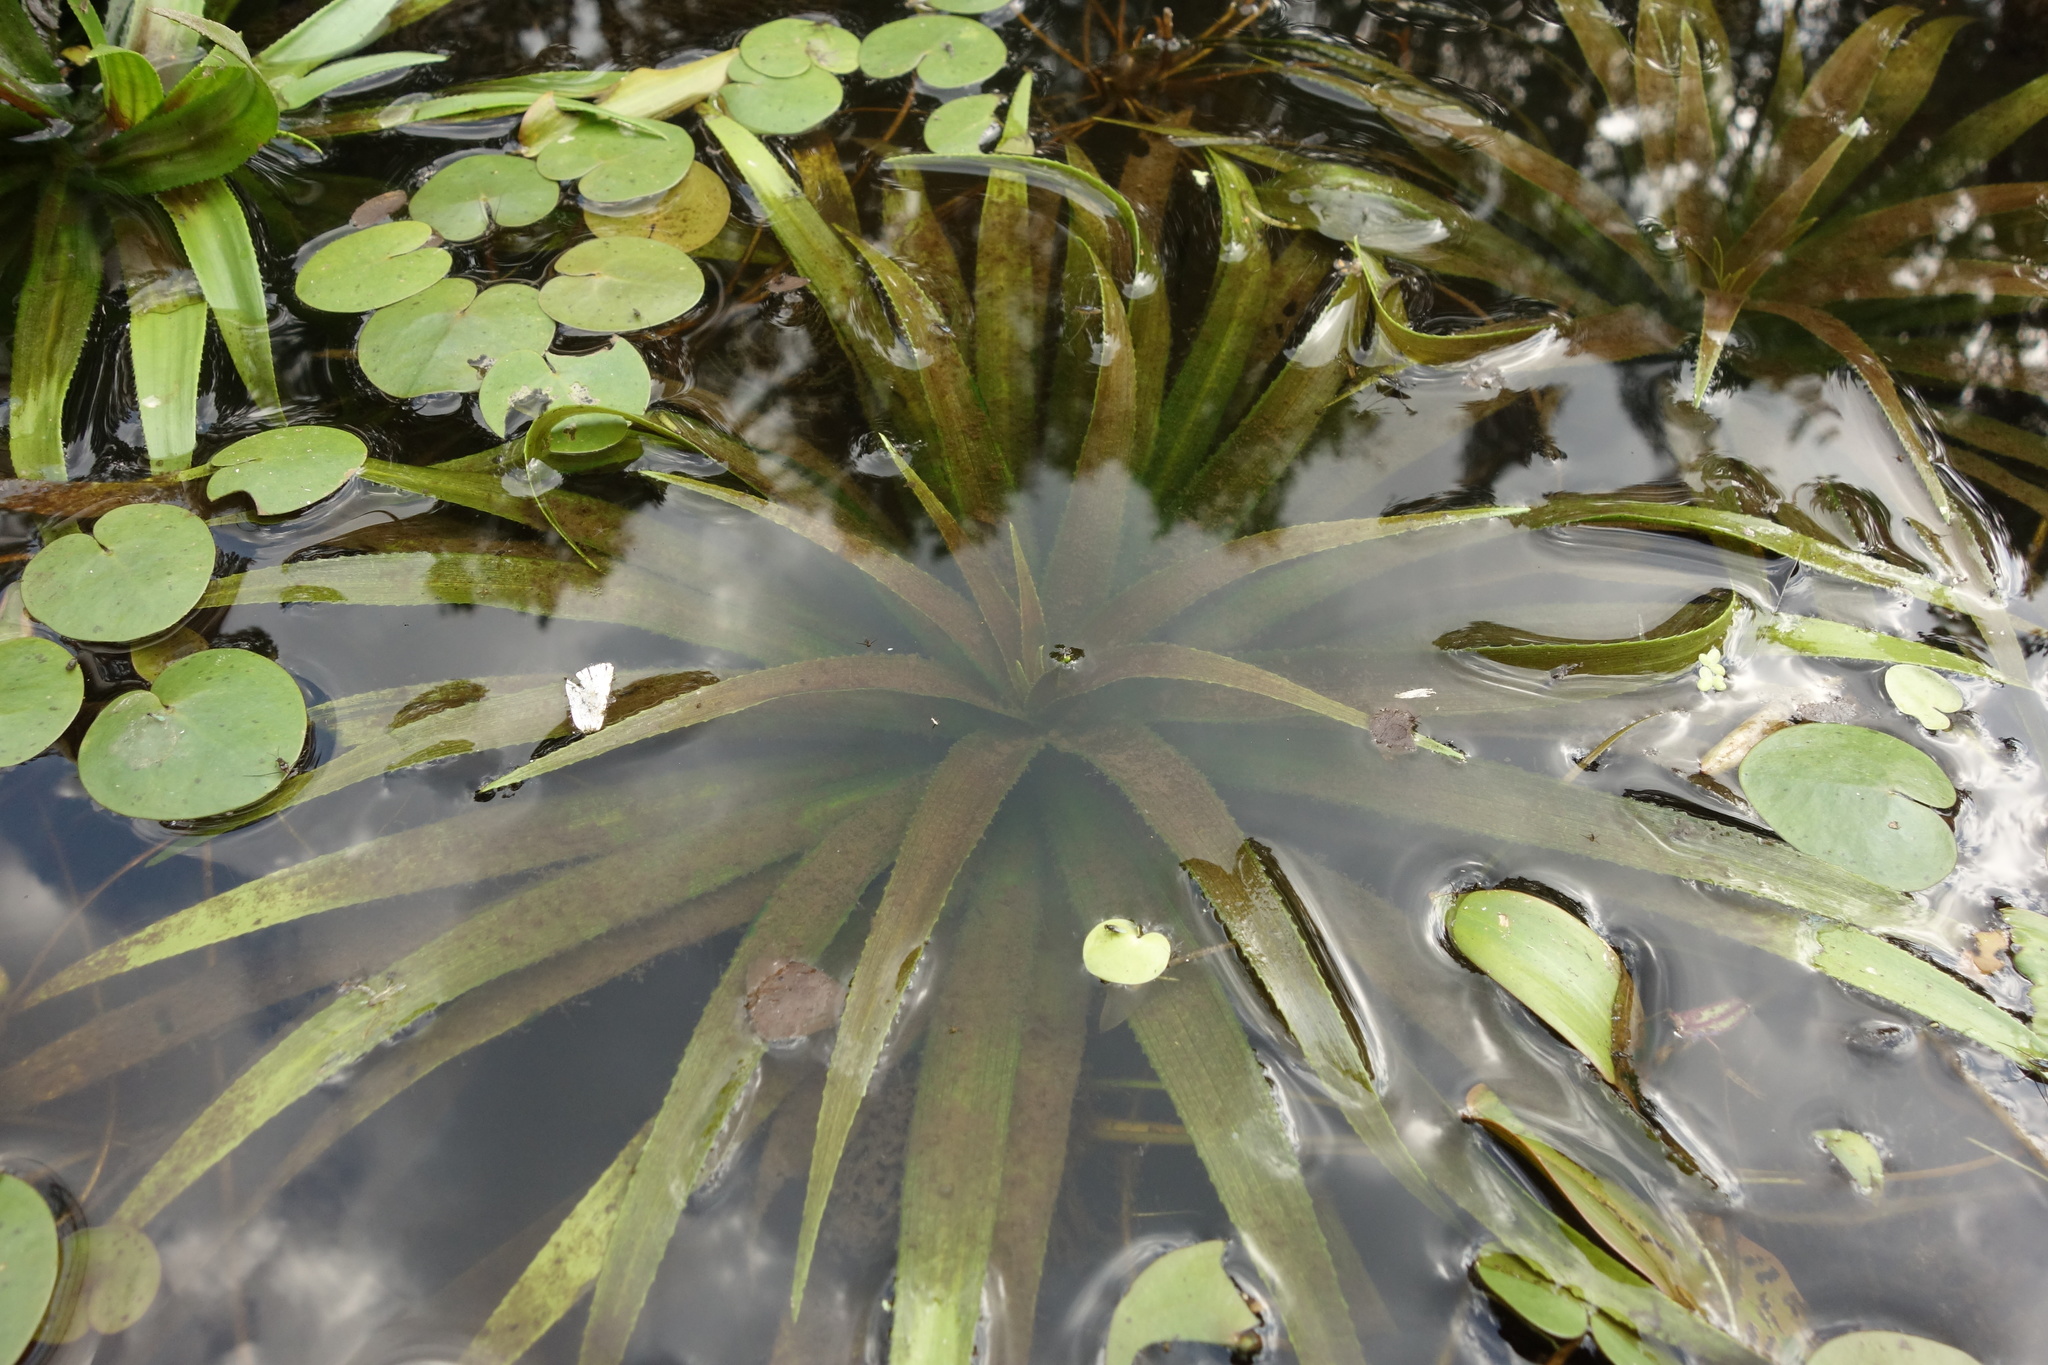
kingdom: Plantae
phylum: Tracheophyta
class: Liliopsida
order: Alismatales
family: Hydrocharitaceae
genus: Stratiotes
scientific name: Stratiotes aloides
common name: Water-soldier
